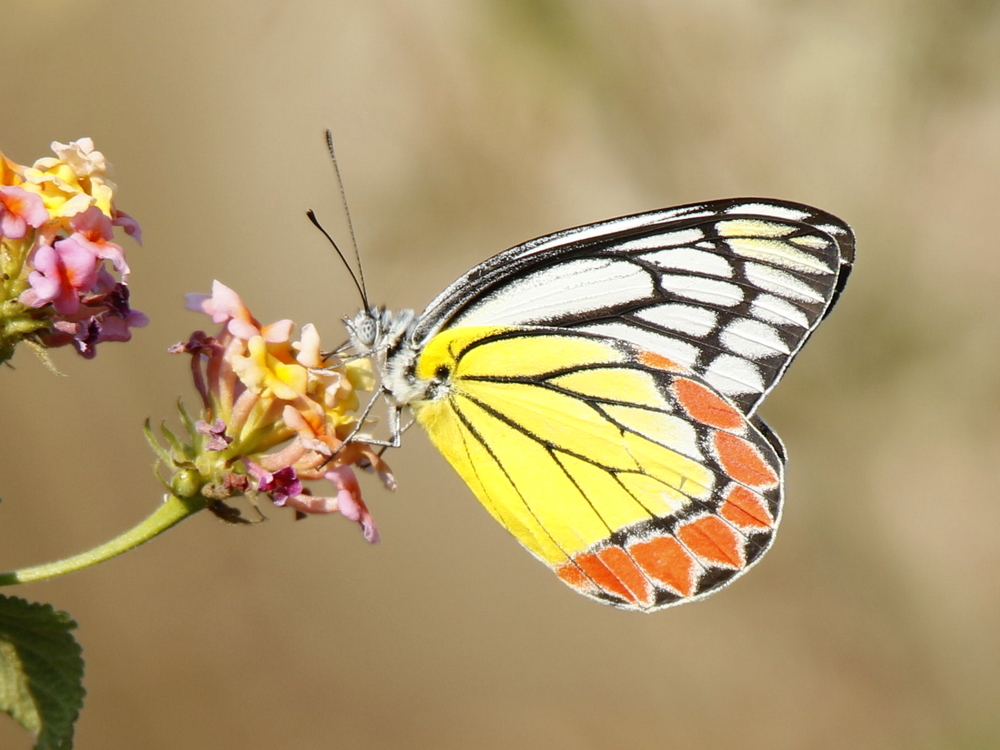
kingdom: Animalia
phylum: Arthropoda
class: Insecta
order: Lepidoptera
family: Pieridae
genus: Delias
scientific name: Delias eucharis
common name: Common jezebel
